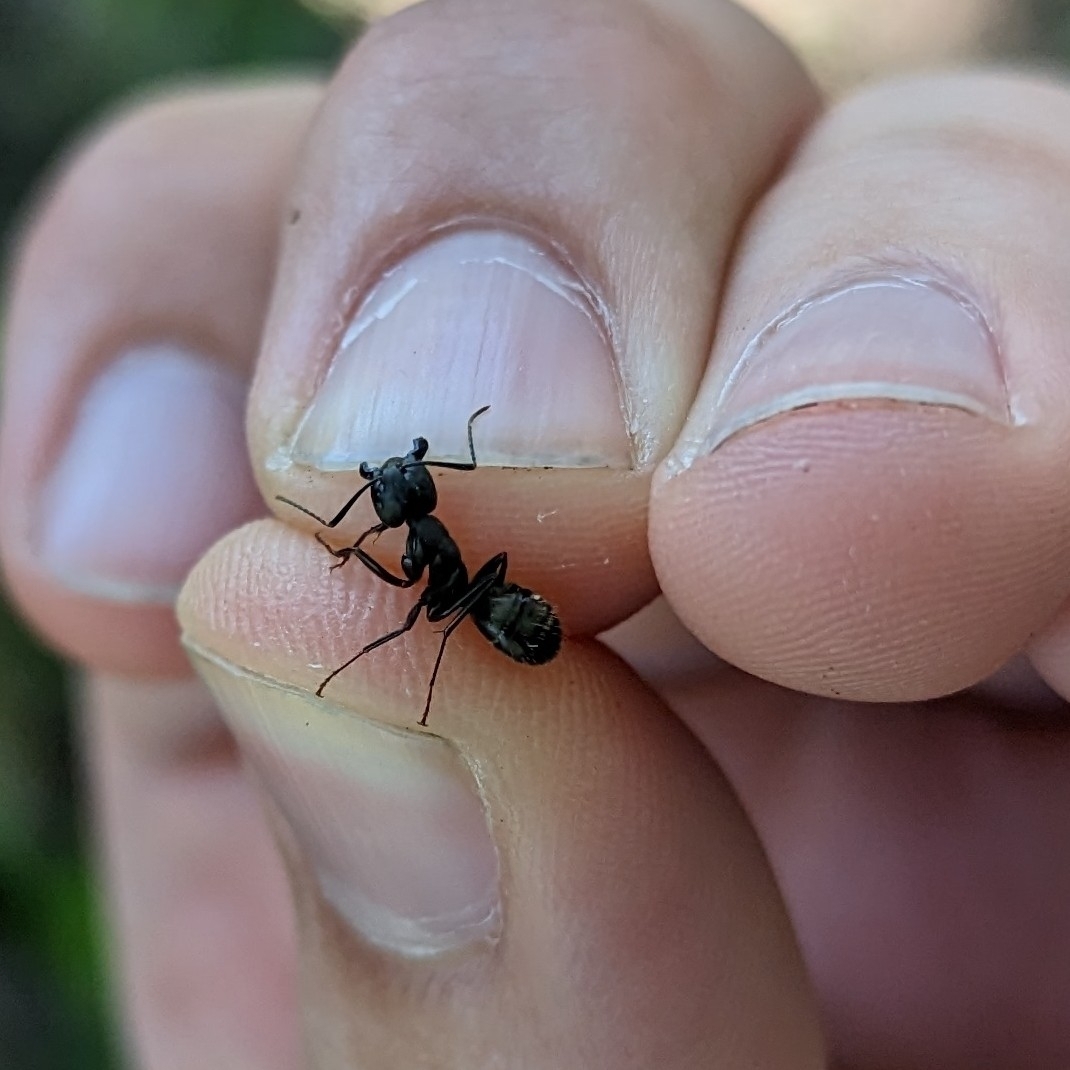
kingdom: Animalia
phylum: Arthropoda
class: Insecta
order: Hymenoptera
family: Formicidae
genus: Camponotus
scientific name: Camponotus pennsylvanicus
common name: Black carpenter ant
